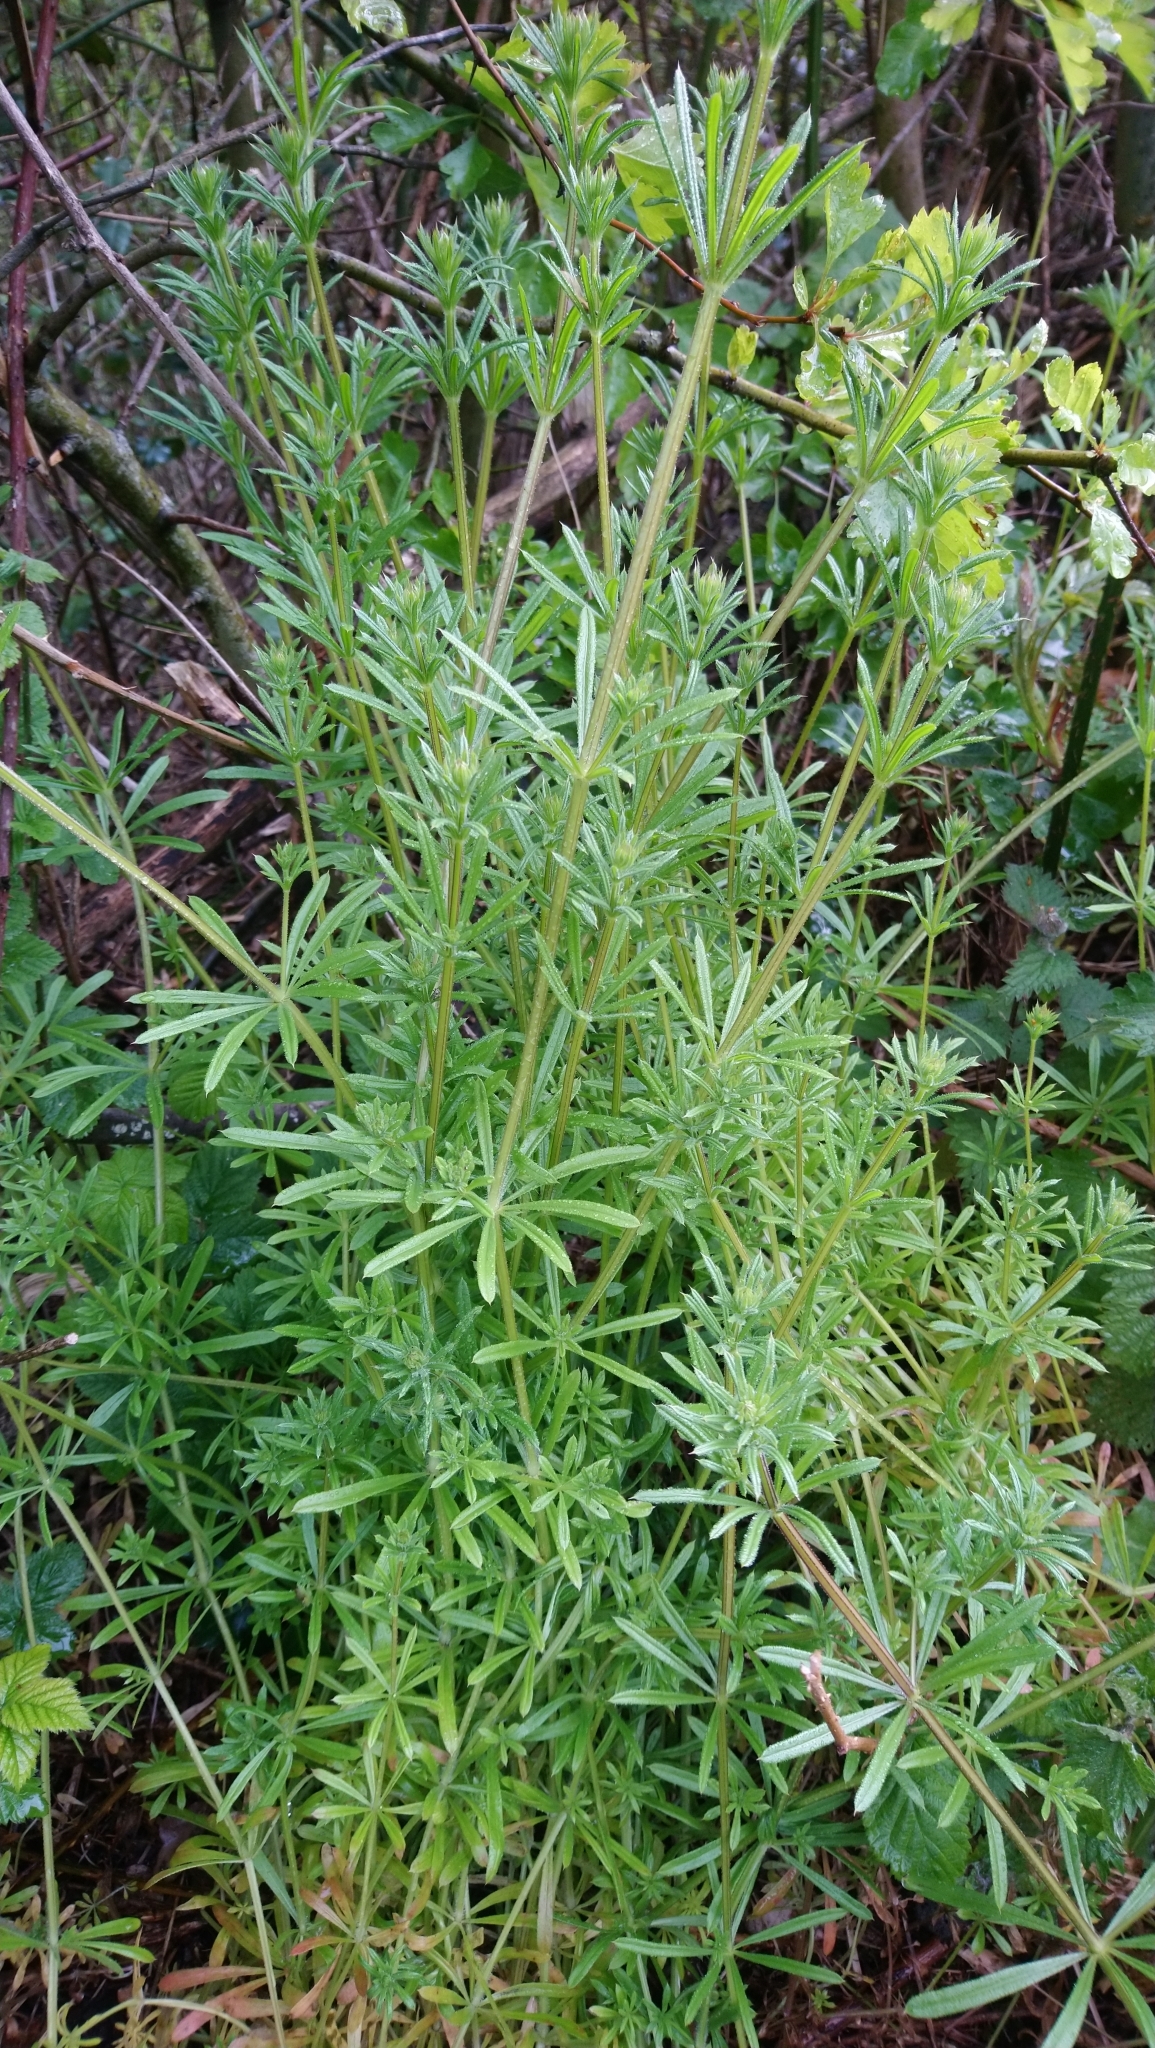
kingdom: Plantae
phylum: Tracheophyta
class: Magnoliopsida
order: Gentianales
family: Rubiaceae
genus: Galium
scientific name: Galium aparine
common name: Cleavers
